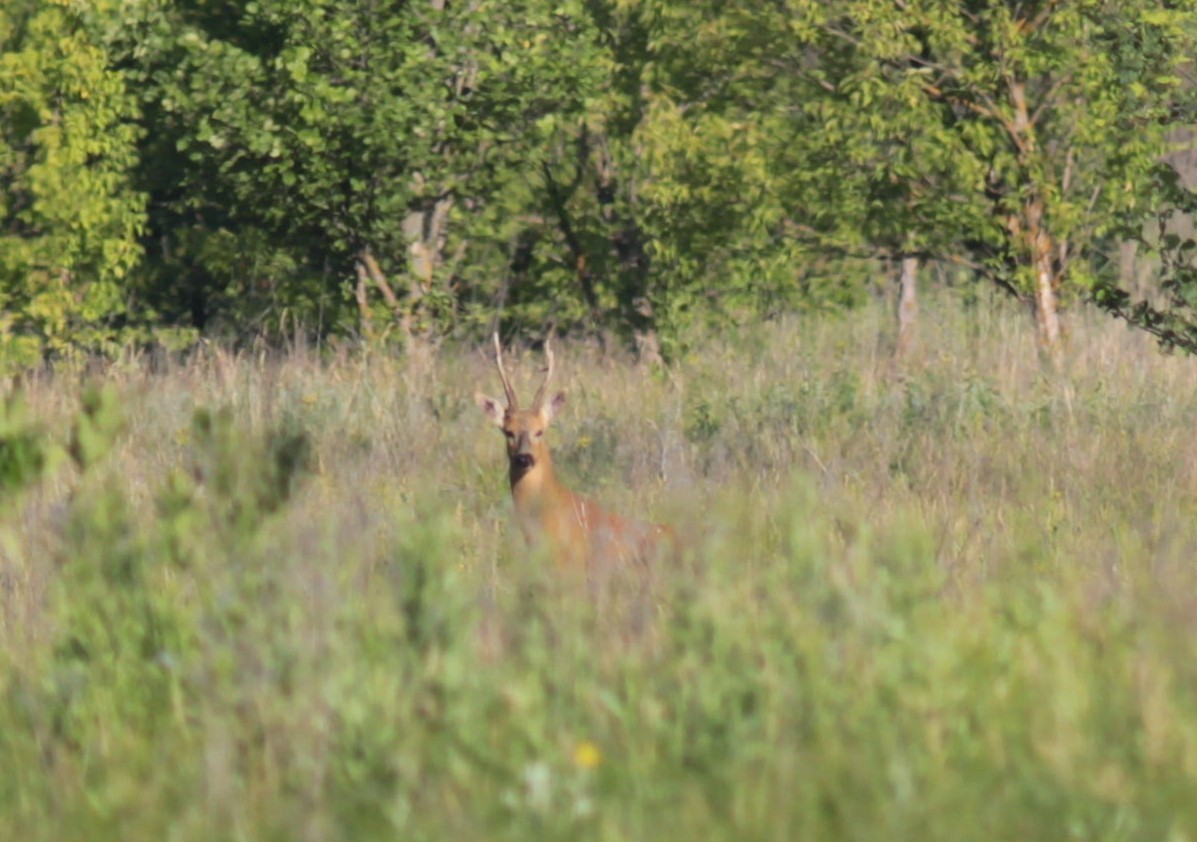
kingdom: Animalia
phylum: Chordata
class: Mammalia
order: Artiodactyla
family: Cervidae
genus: Capreolus
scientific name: Capreolus pygargus
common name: Siberian roe
